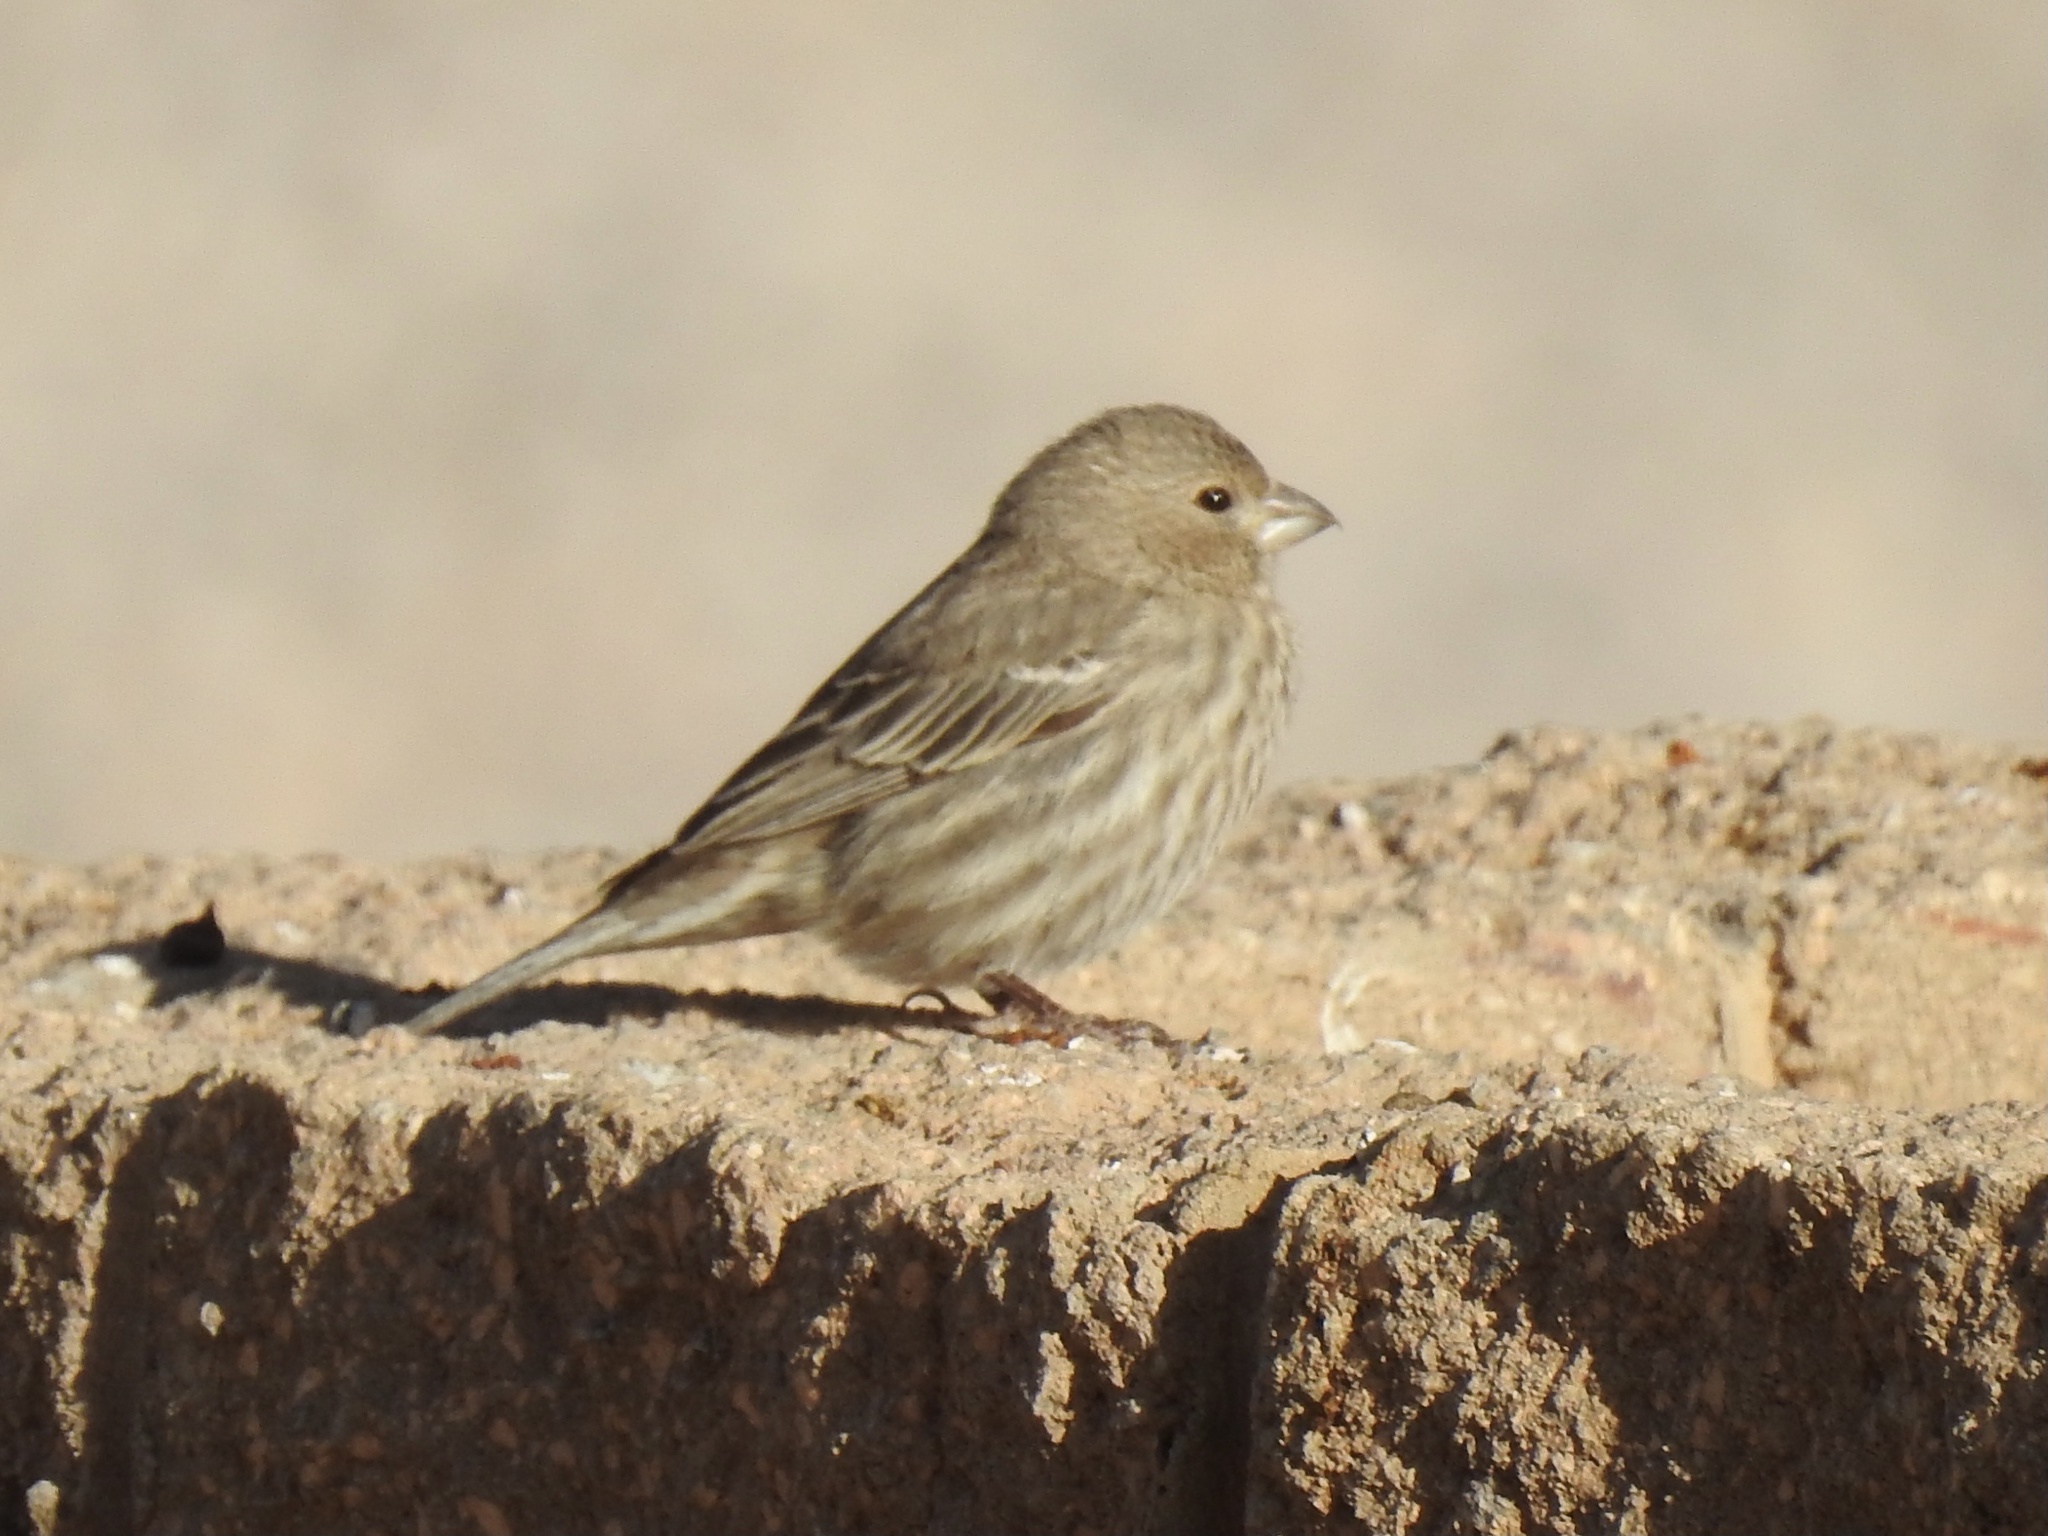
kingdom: Animalia
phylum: Chordata
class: Aves
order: Passeriformes
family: Fringillidae
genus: Haemorhous
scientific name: Haemorhous mexicanus
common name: House finch
